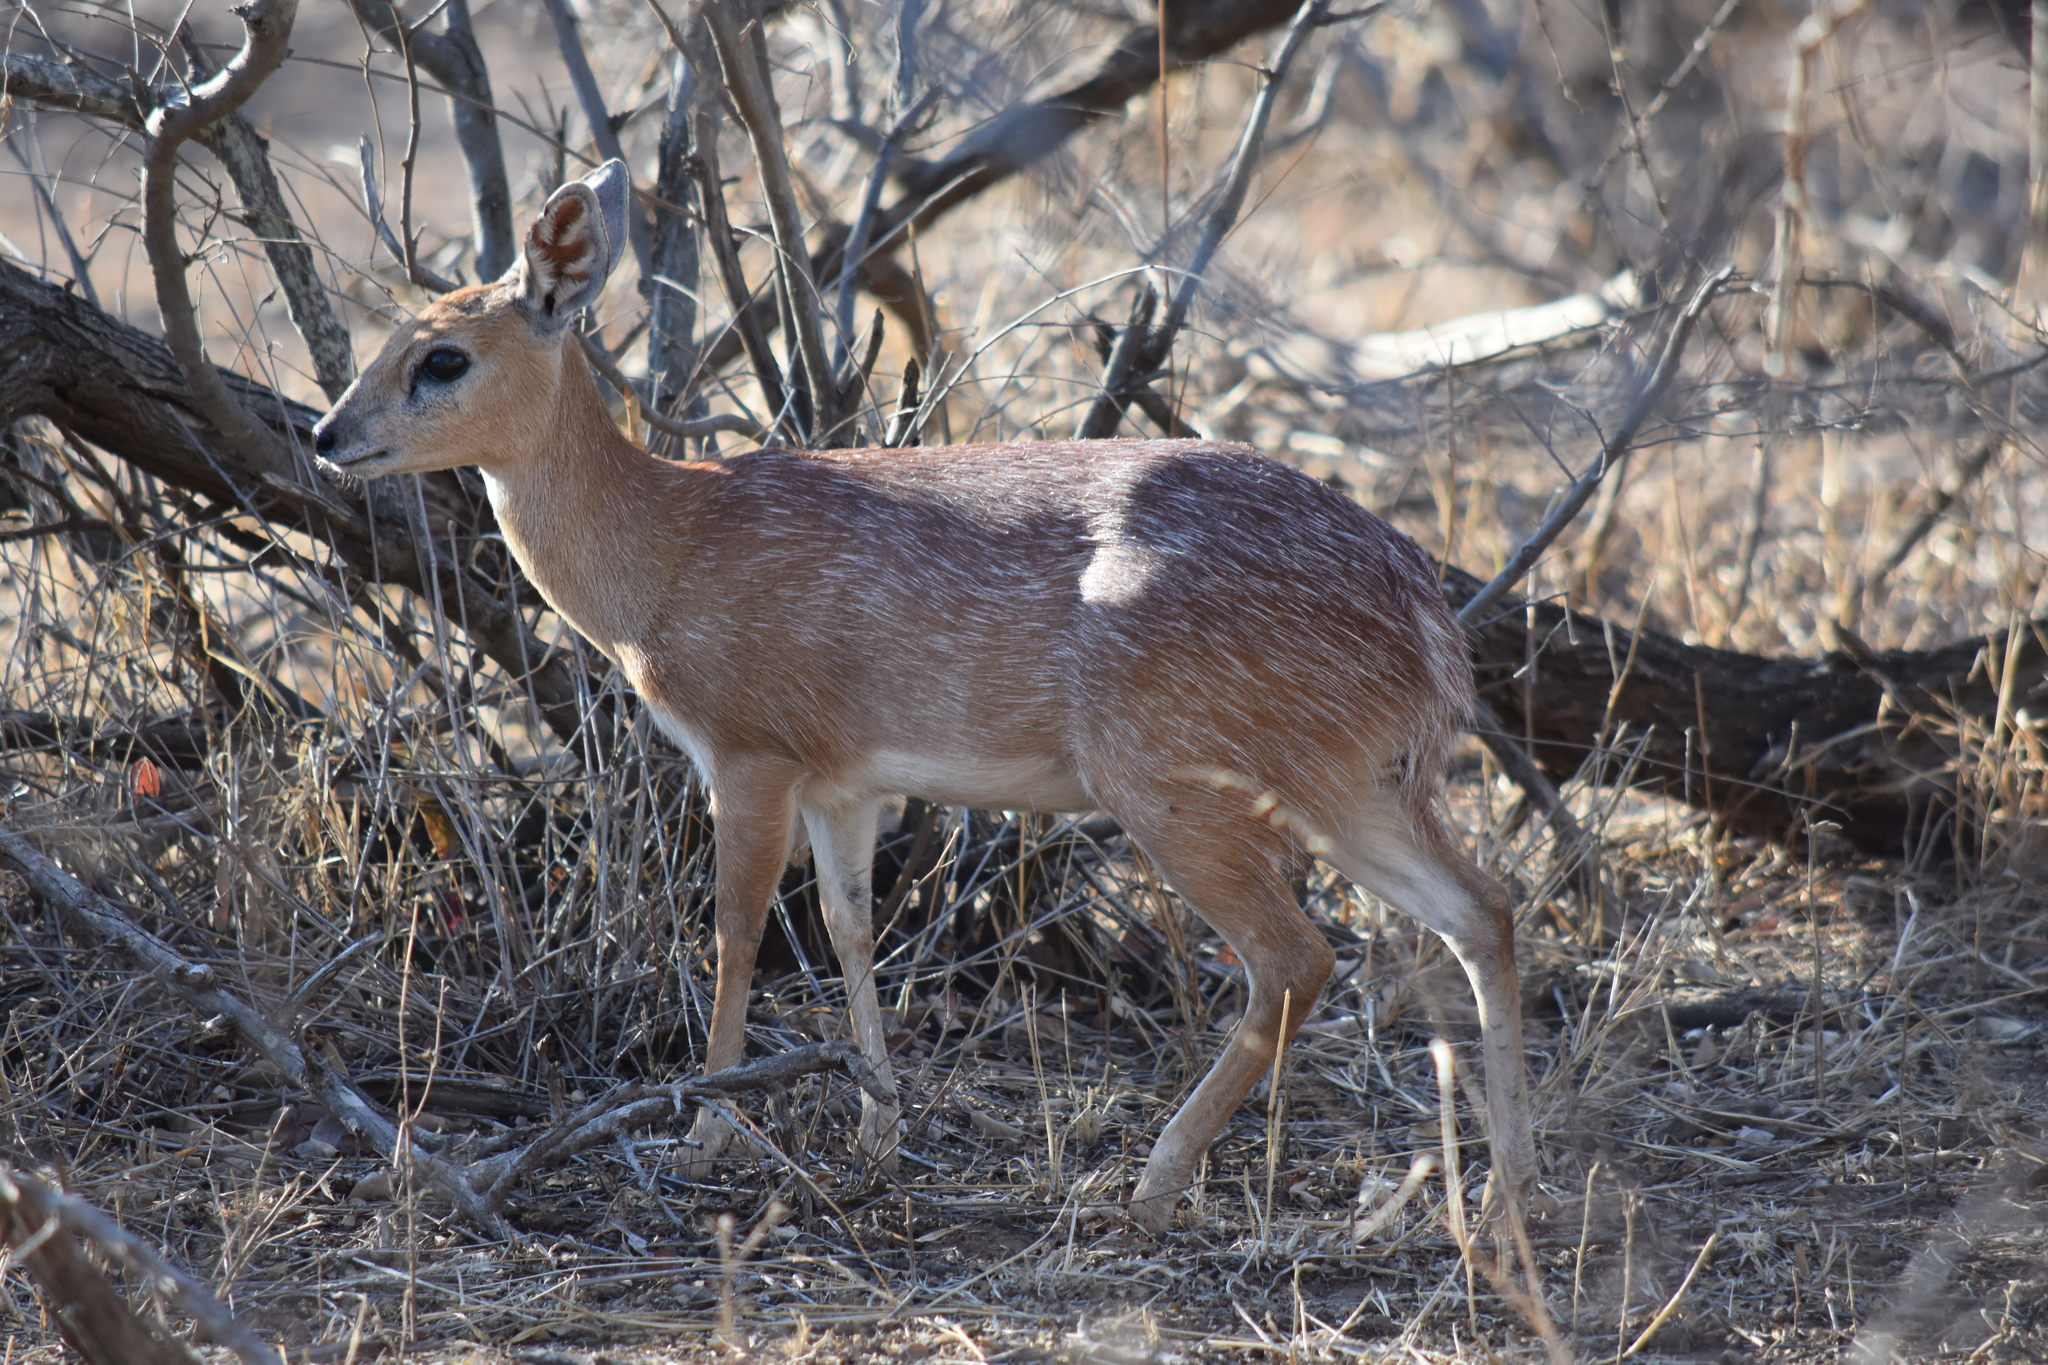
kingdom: Animalia
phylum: Chordata
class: Mammalia
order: Artiodactyla
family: Bovidae
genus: Raphicerus
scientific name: Raphicerus sharpei
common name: Sharpe's grysbok
